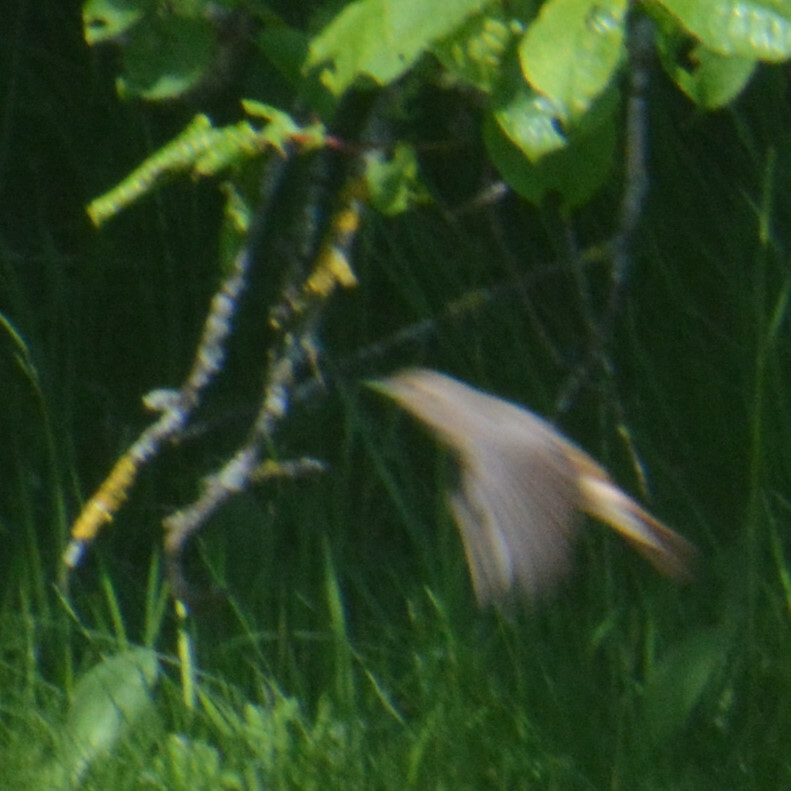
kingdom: Animalia
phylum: Chordata
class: Aves
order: Passeriformes
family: Muscicapidae
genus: Phoenicurus
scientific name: Phoenicurus phoenicurus
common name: Common redstart
